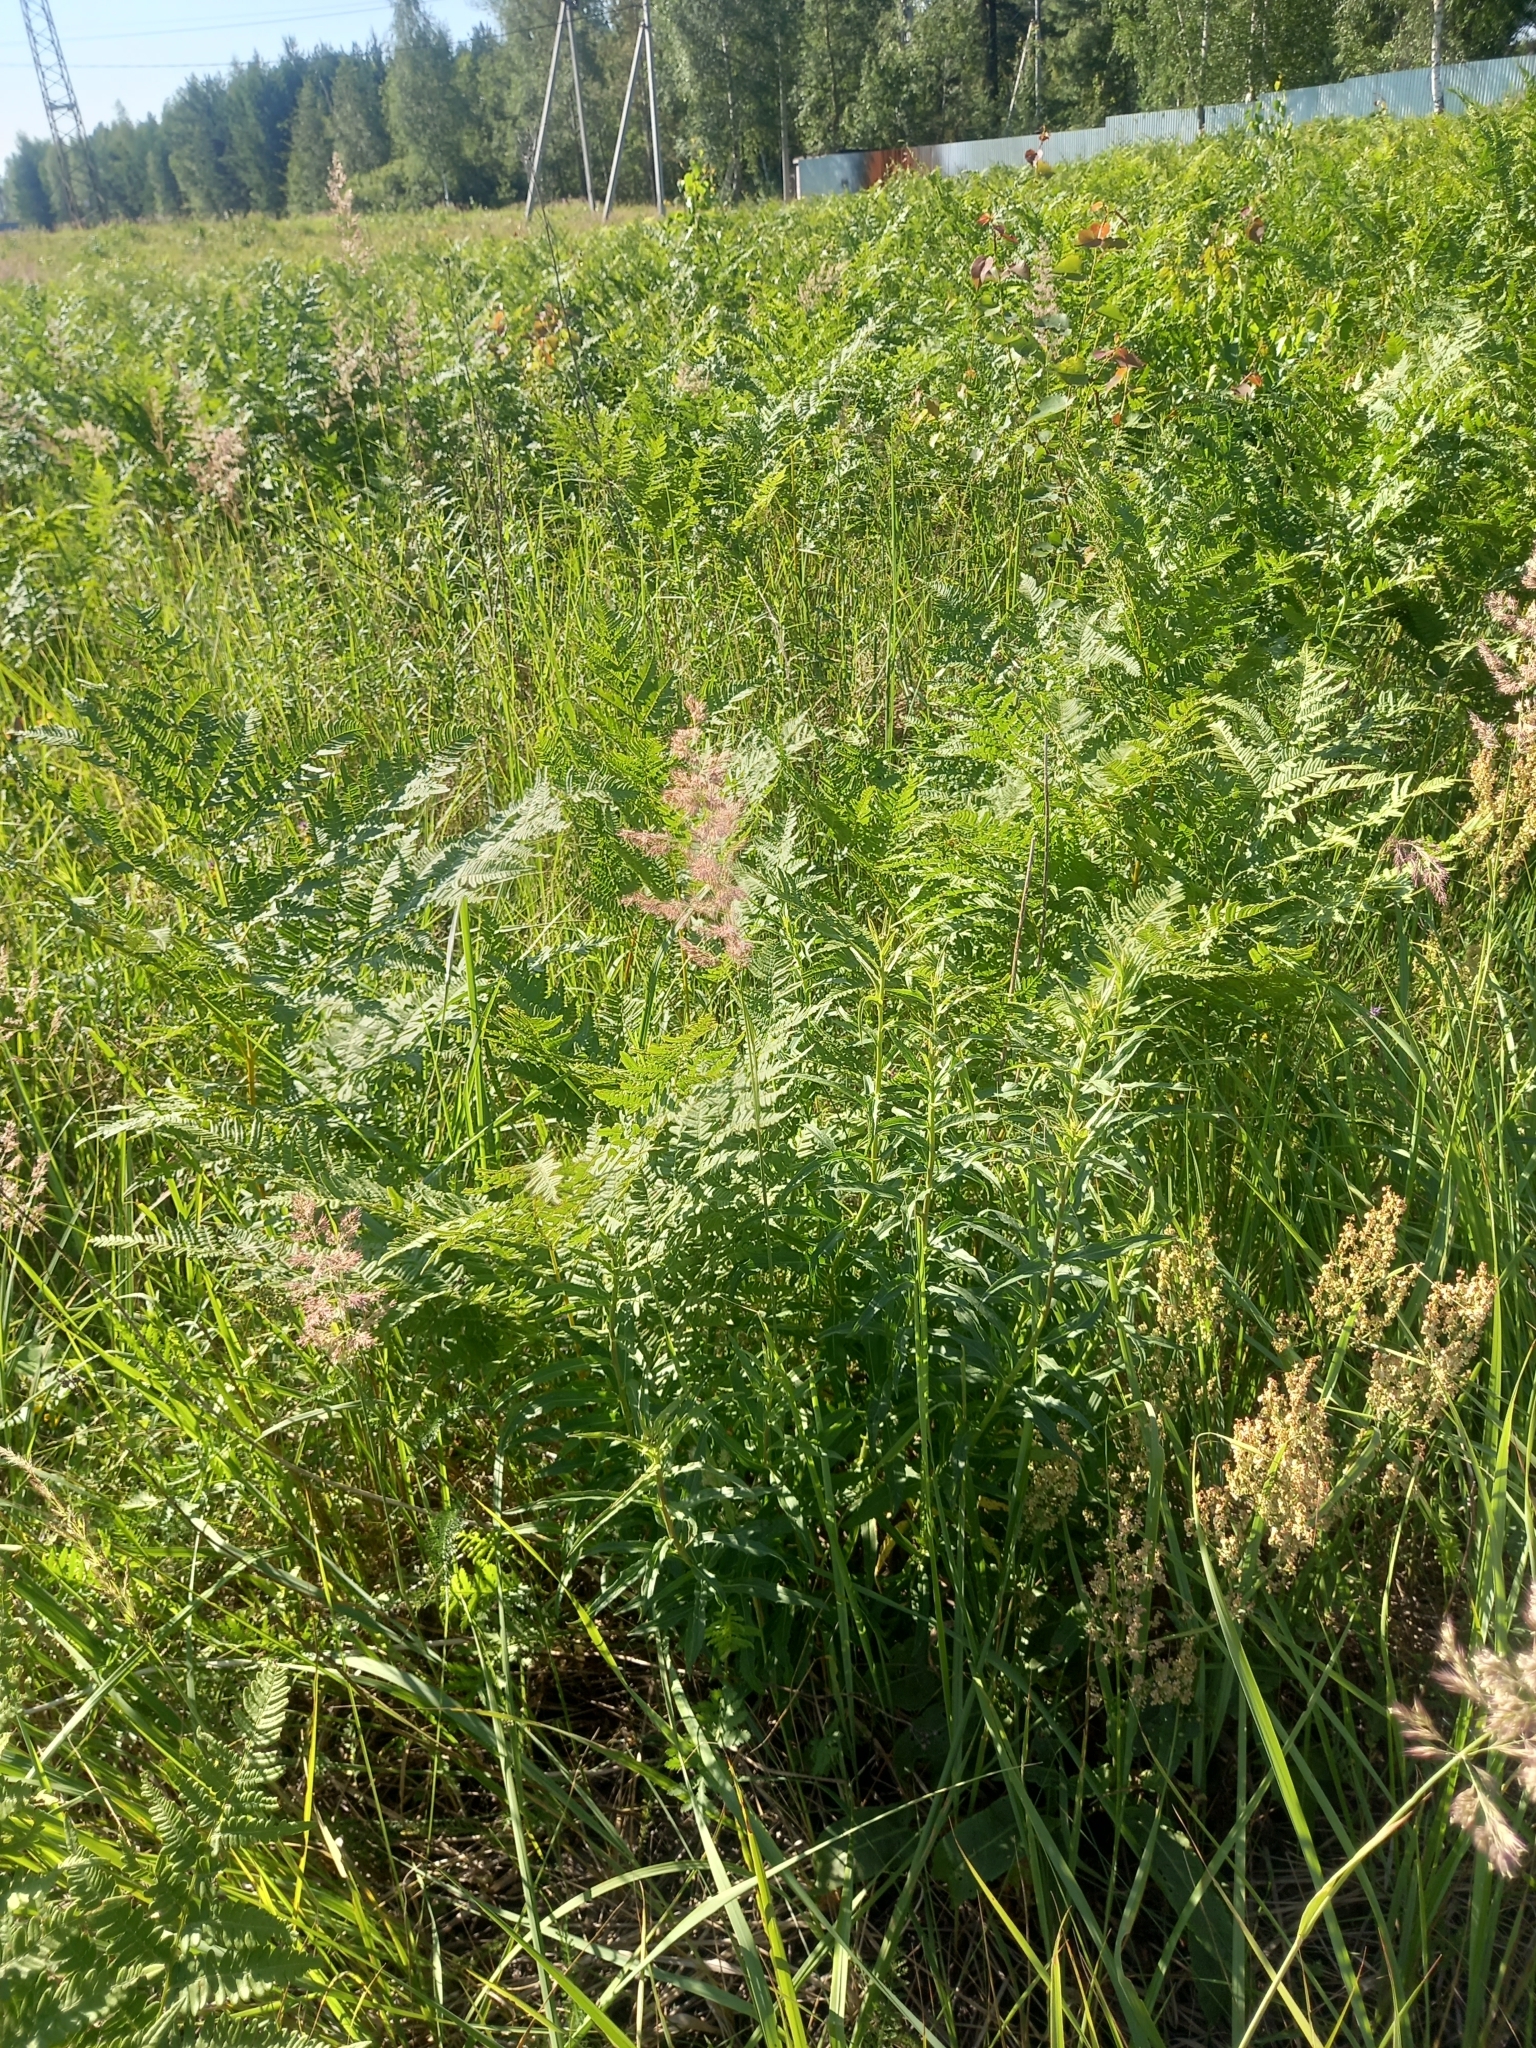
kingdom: Plantae
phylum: Tracheophyta
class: Polypodiopsida
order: Polypodiales
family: Dennstaedtiaceae
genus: Pteridium
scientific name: Pteridium aquilinum
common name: Bracken
